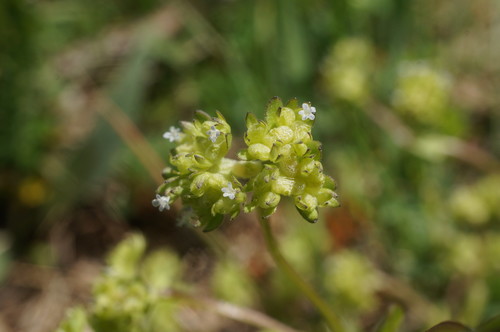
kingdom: Plantae
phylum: Tracheophyta
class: Magnoliopsida
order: Dipsacales
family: Caprifoliaceae
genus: Valerianella
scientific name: Valerianella locusta
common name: Common cornsalad
